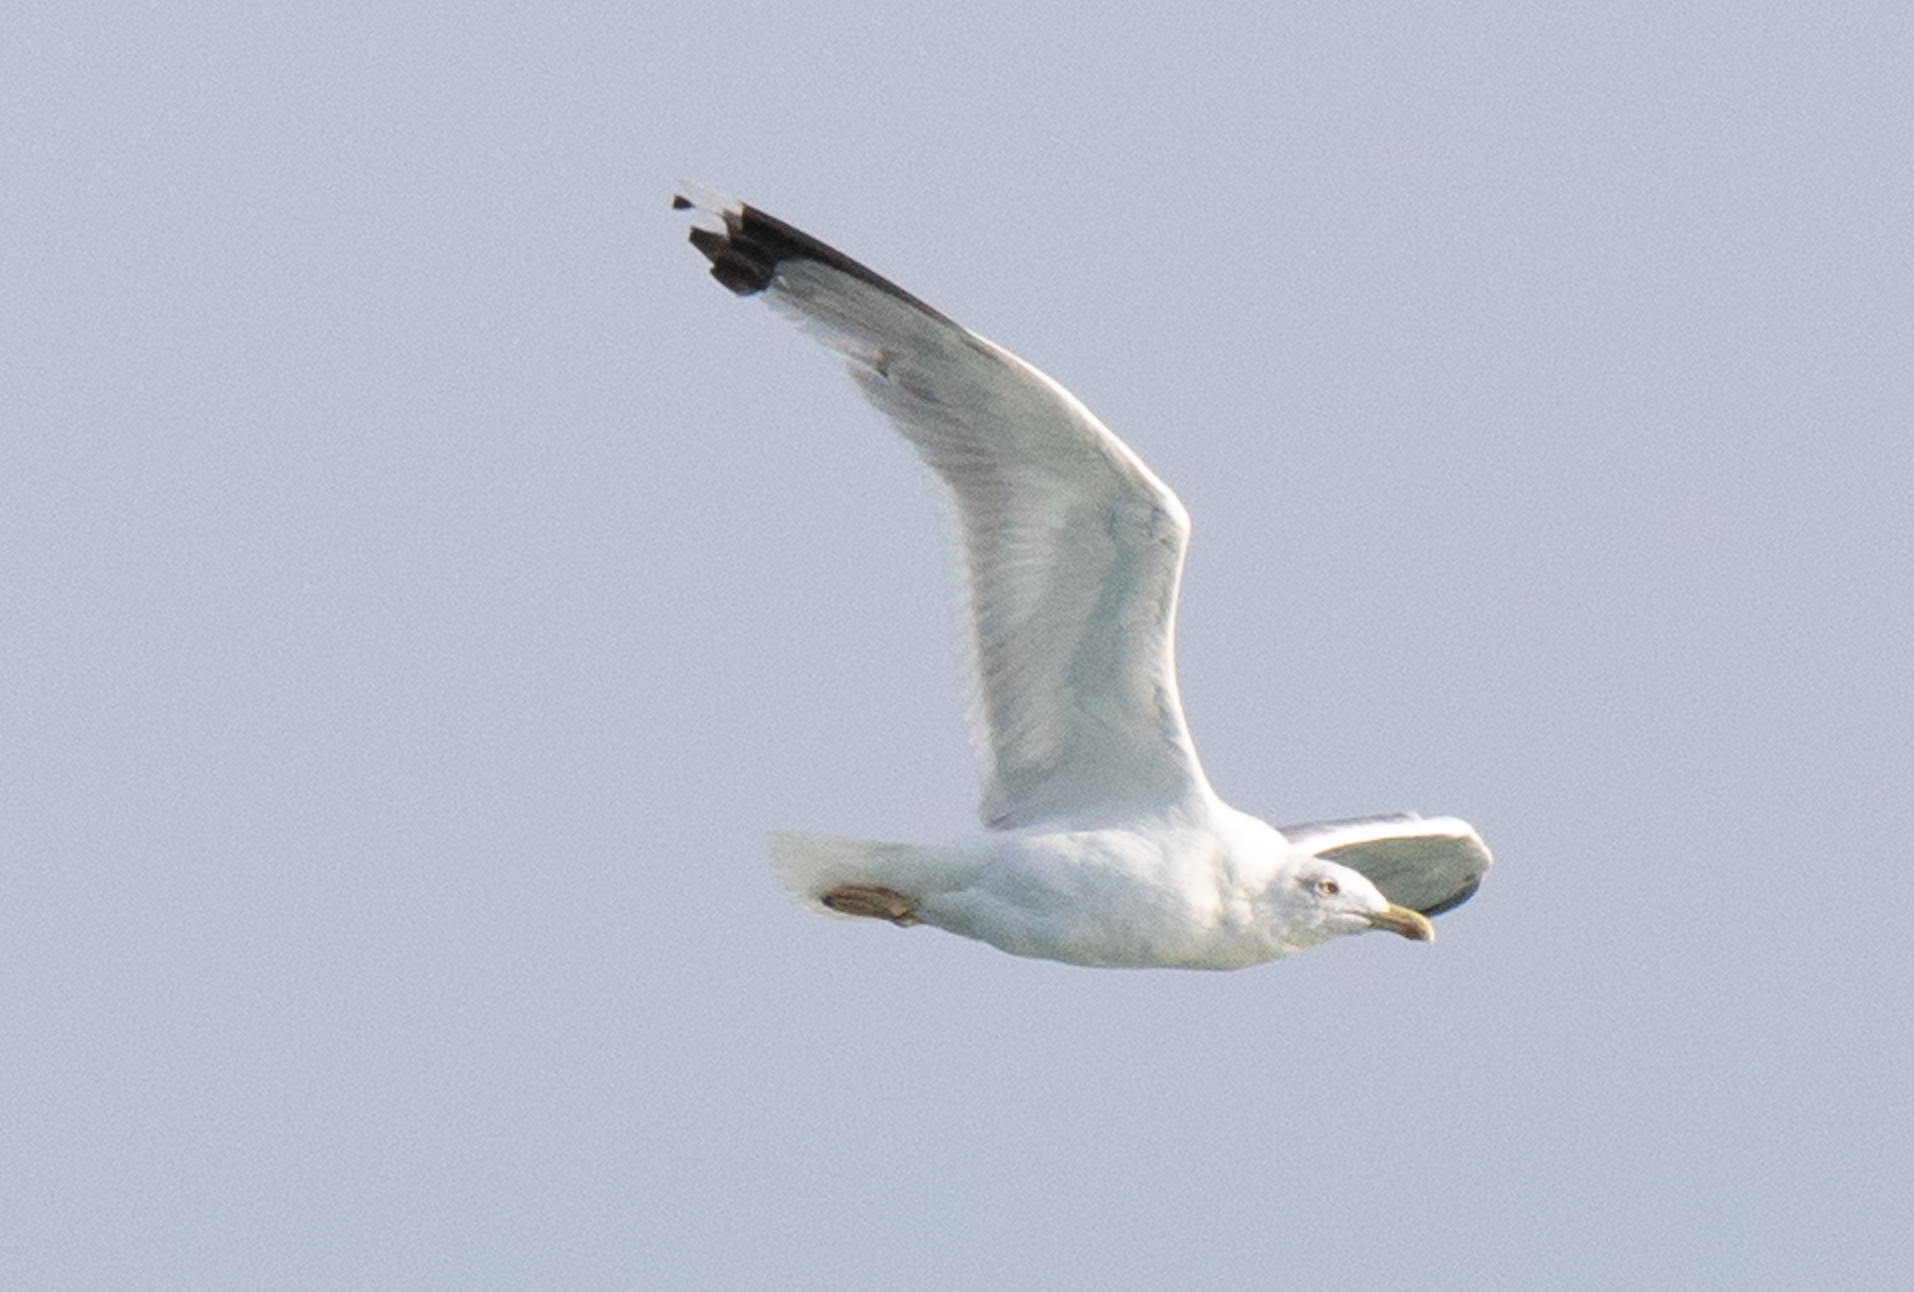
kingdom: Animalia
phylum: Chordata
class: Aves
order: Charadriiformes
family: Laridae
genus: Larus
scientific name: Larus michahellis
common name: Yellow-legged gull
